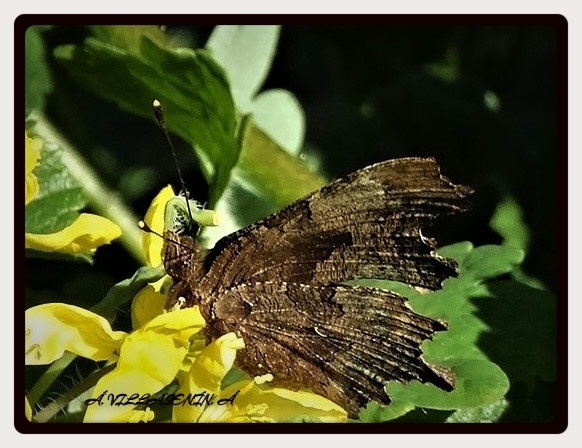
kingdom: Animalia
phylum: Arthropoda
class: Insecta
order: Lepidoptera
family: Nymphalidae
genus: Polygonia
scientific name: Polygonia c-album
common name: Comma
